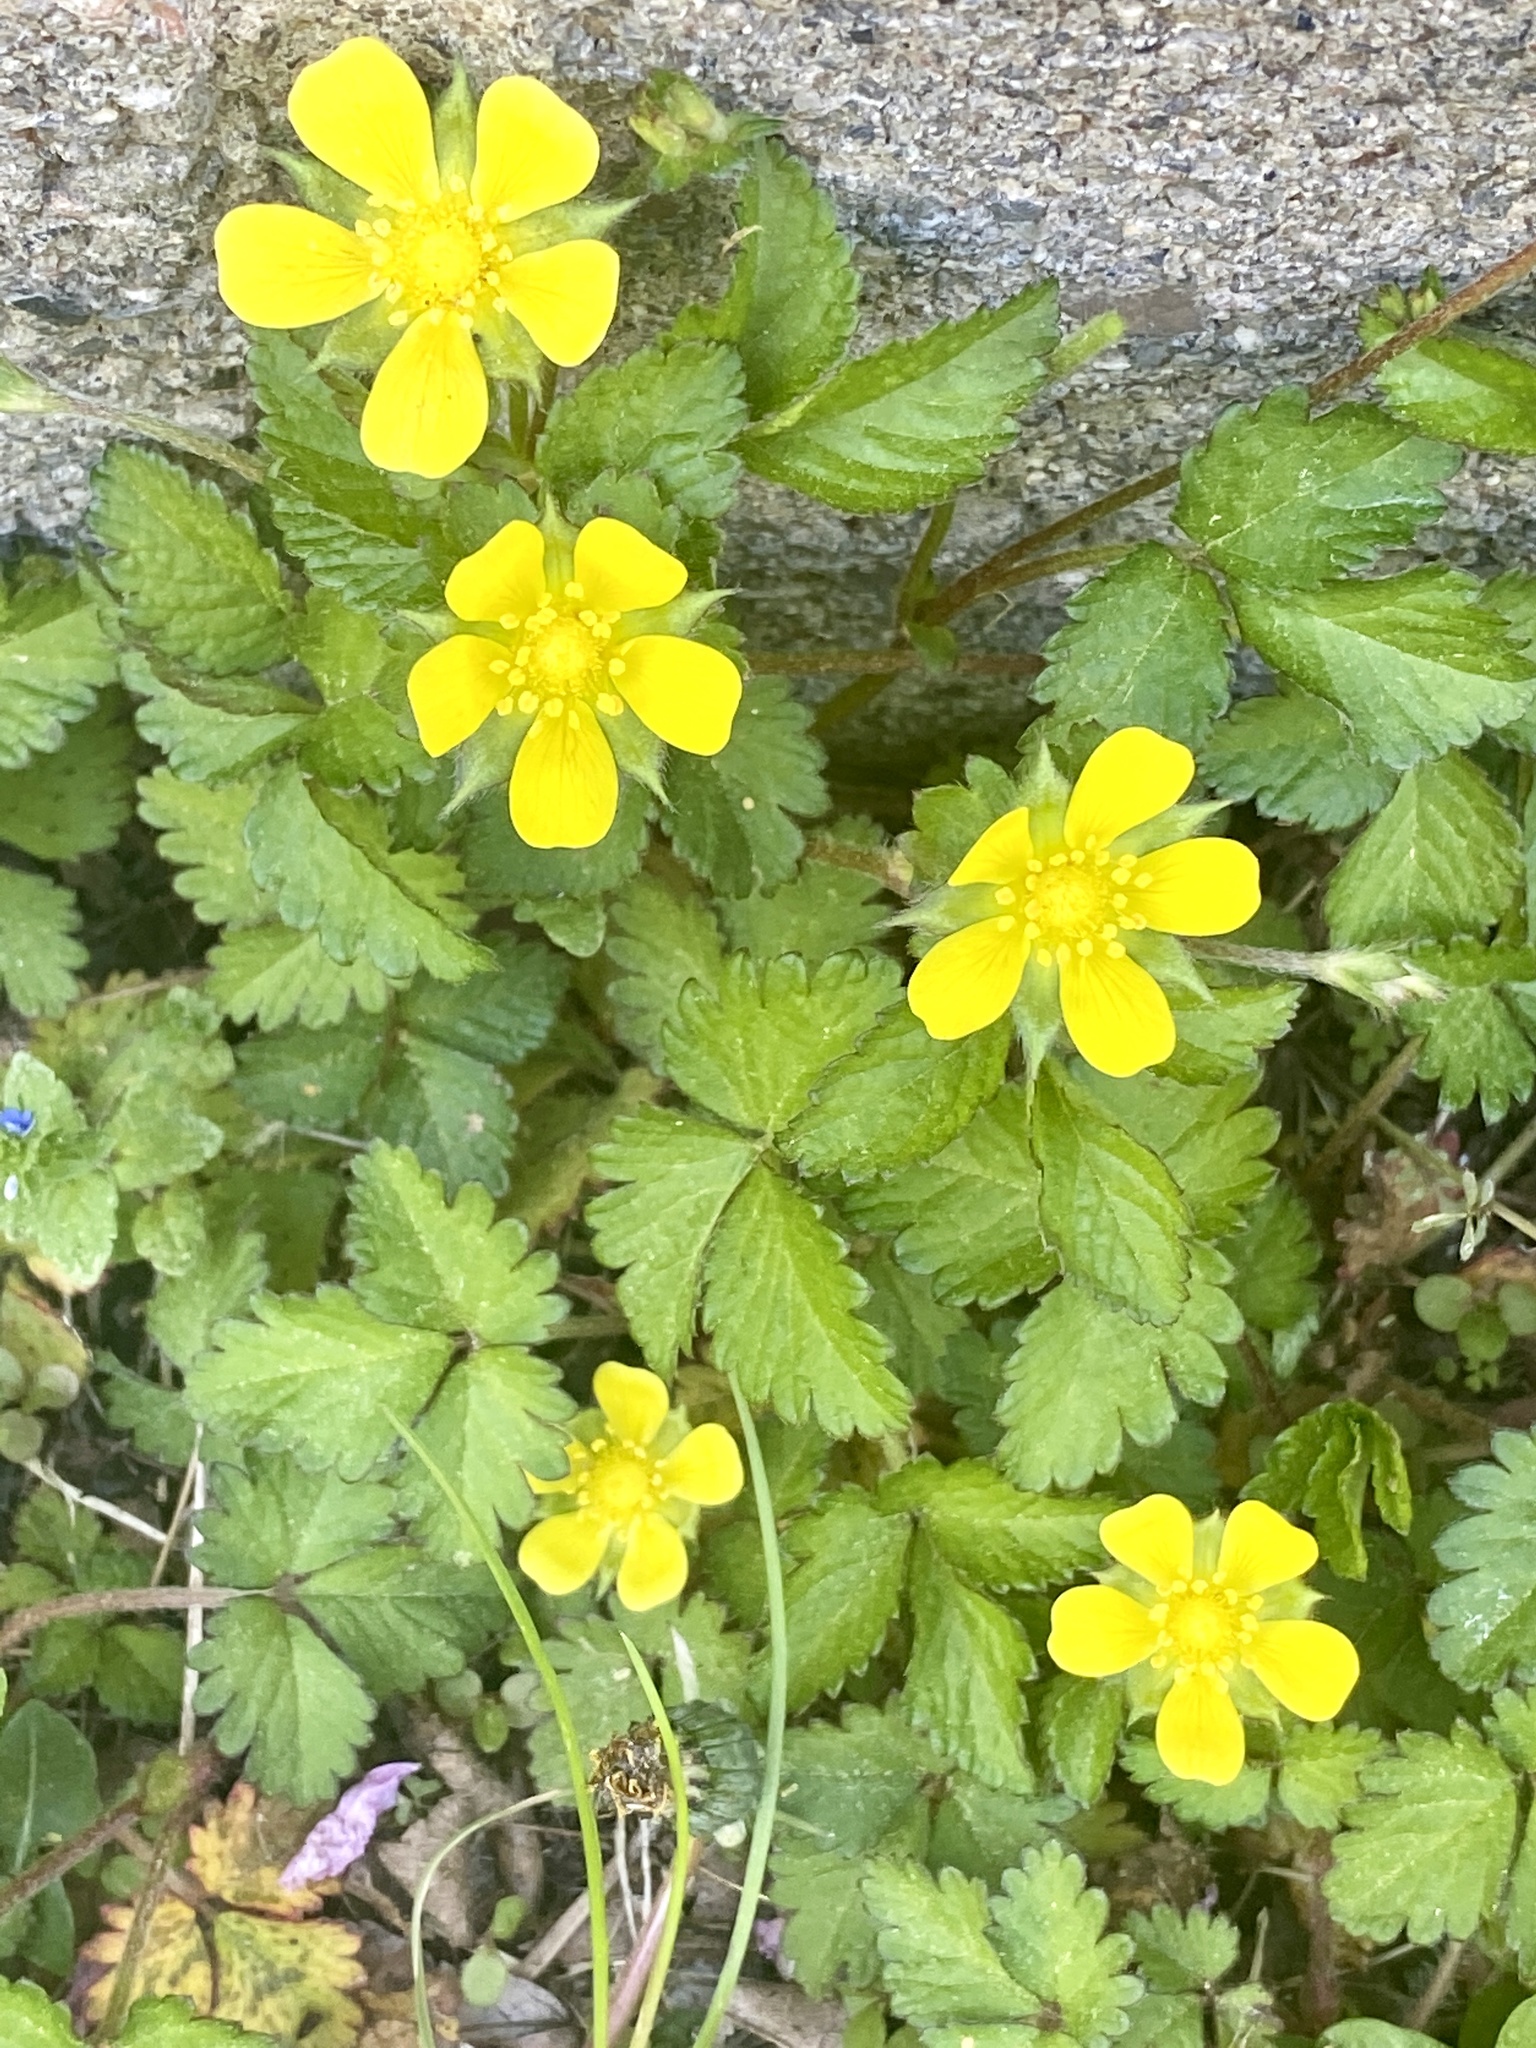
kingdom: Plantae
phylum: Tracheophyta
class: Magnoliopsida
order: Rosales
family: Rosaceae
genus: Potentilla
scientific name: Potentilla indica
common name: Yellow-flowered strawberry
